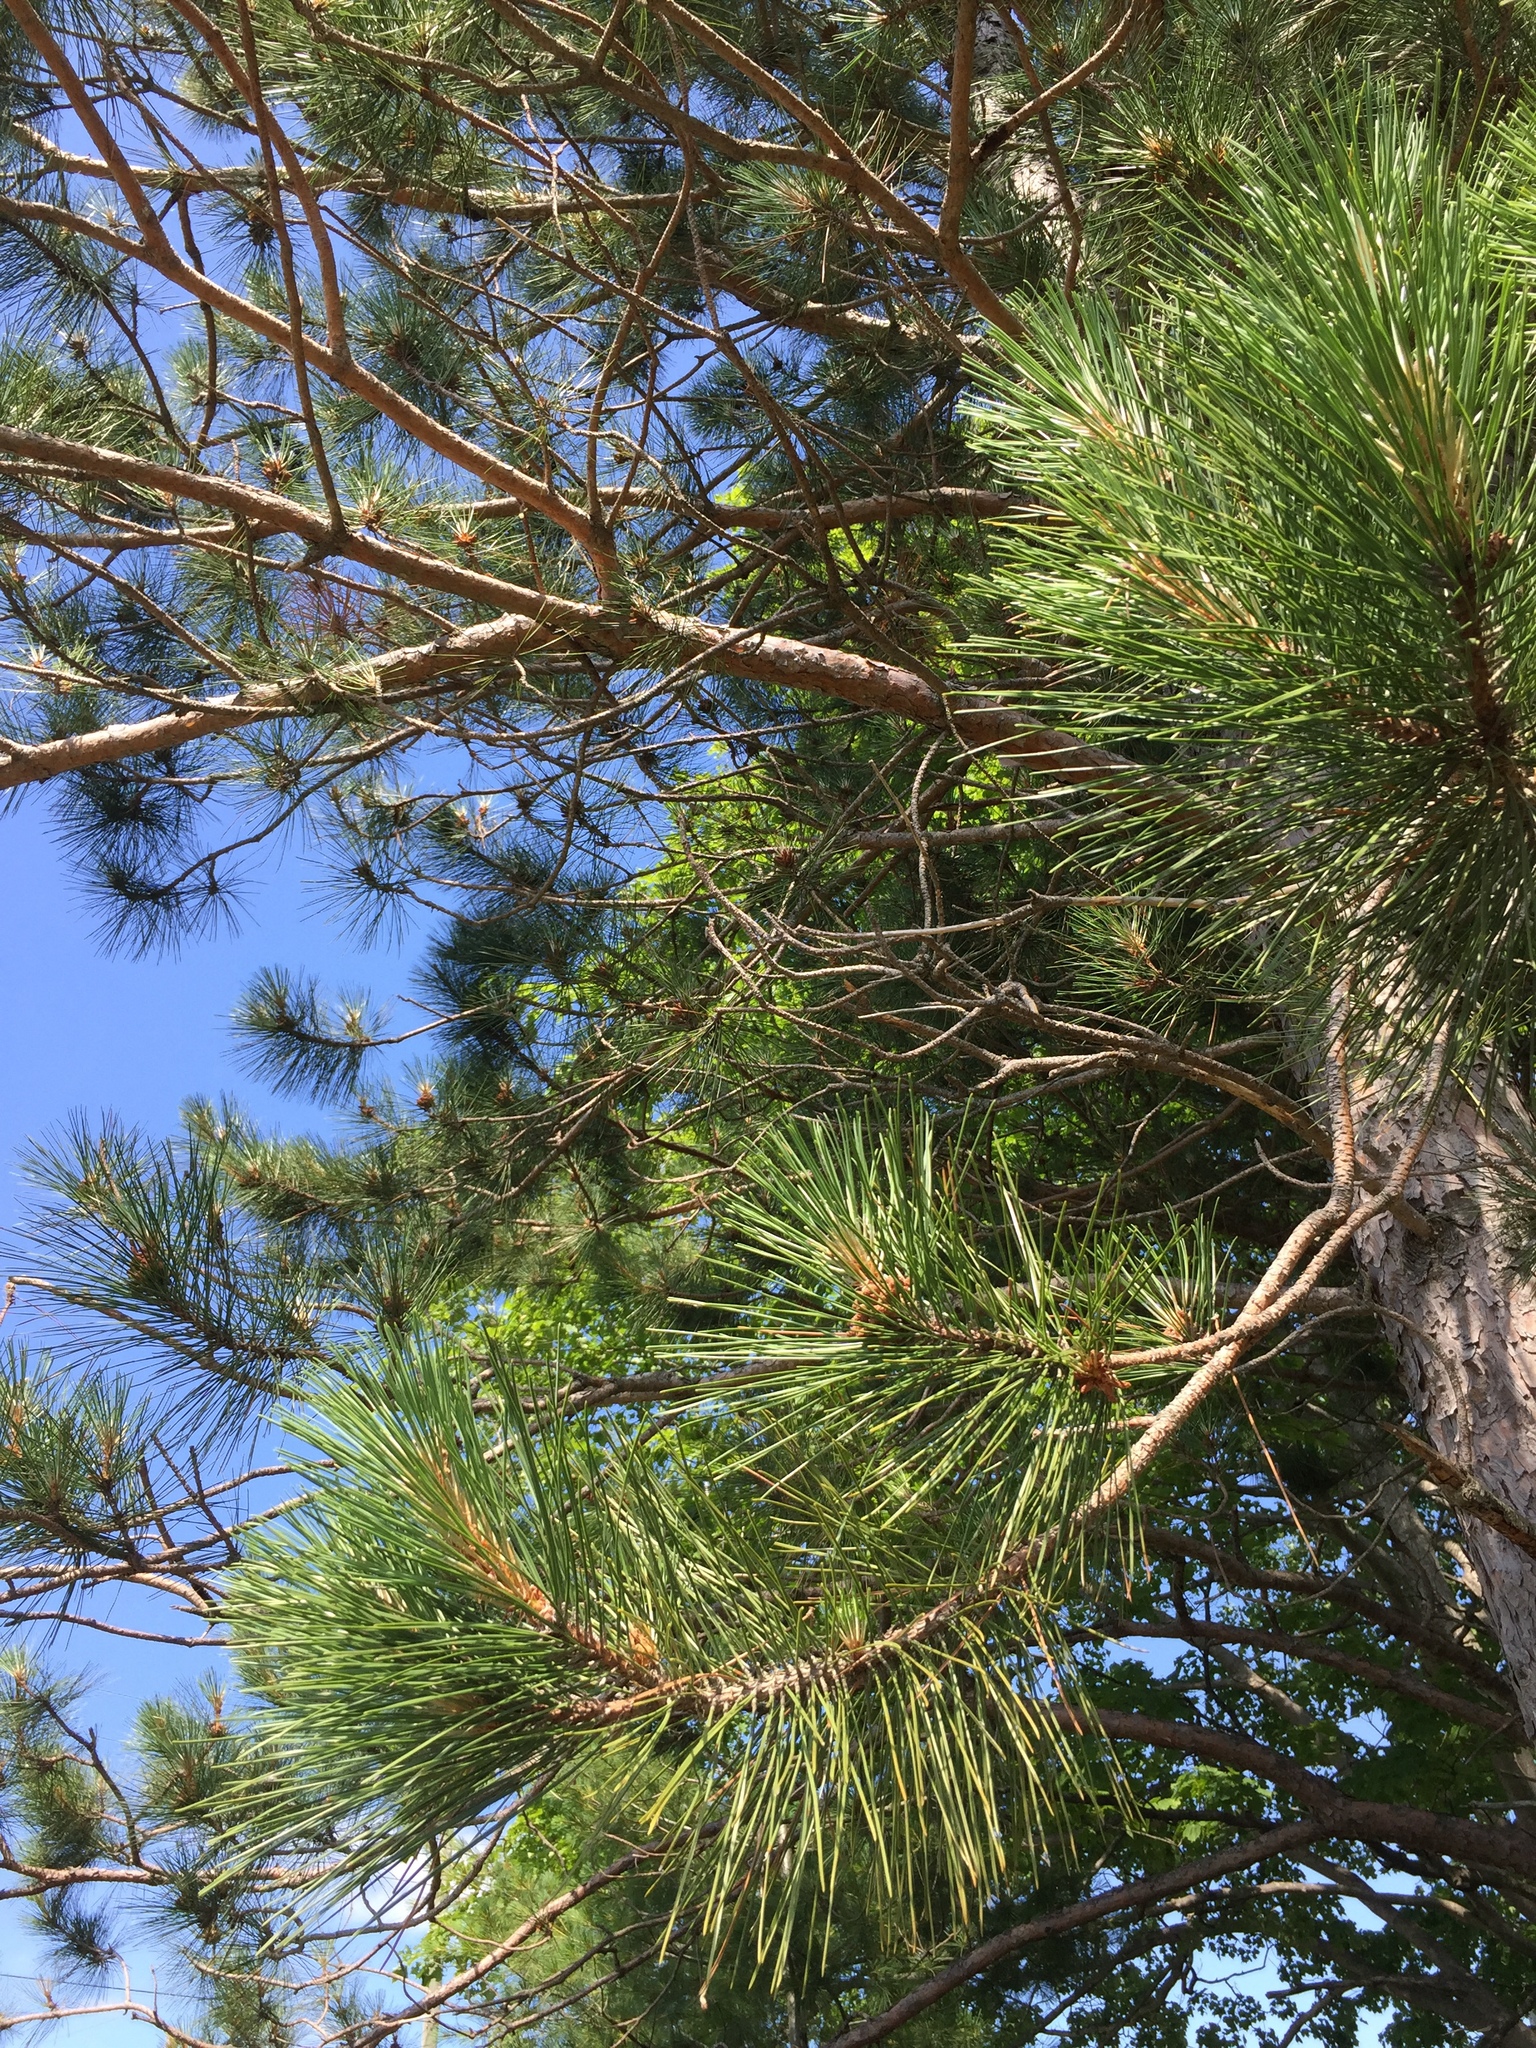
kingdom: Plantae
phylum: Tracheophyta
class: Pinopsida
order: Pinales
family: Pinaceae
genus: Pinus
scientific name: Pinus resinosa
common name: Norway pine
